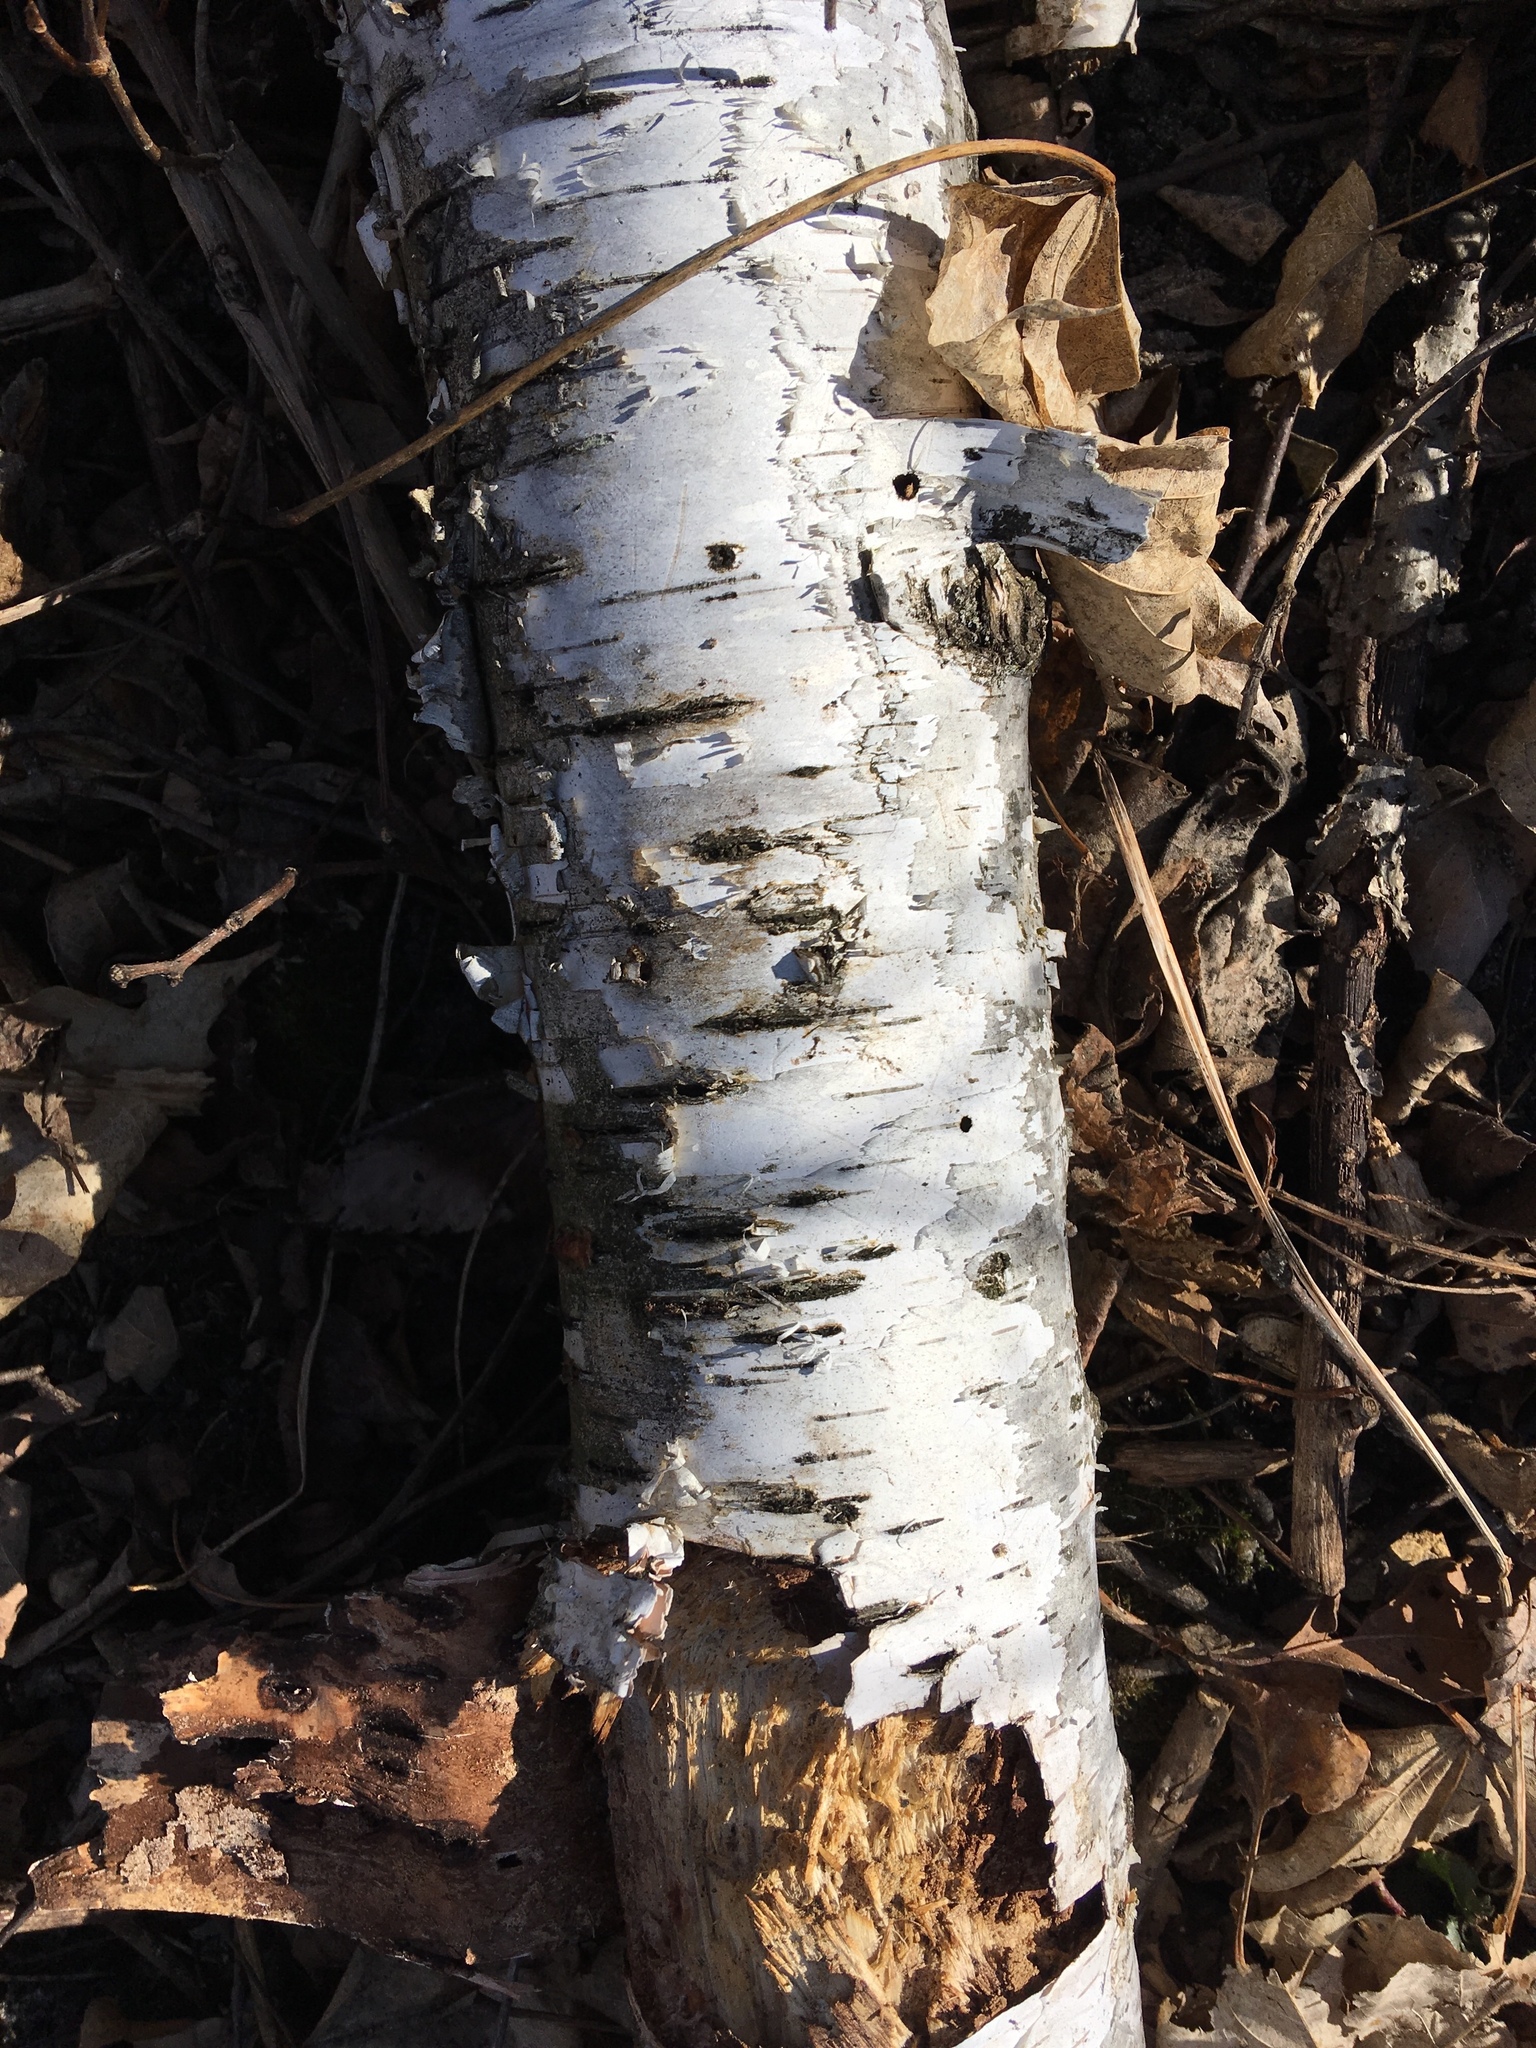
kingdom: Plantae
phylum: Tracheophyta
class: Magnoliopsida
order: Fagales
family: Betulaceae
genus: Betula
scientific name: Betula papyrifera
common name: Paper birch
